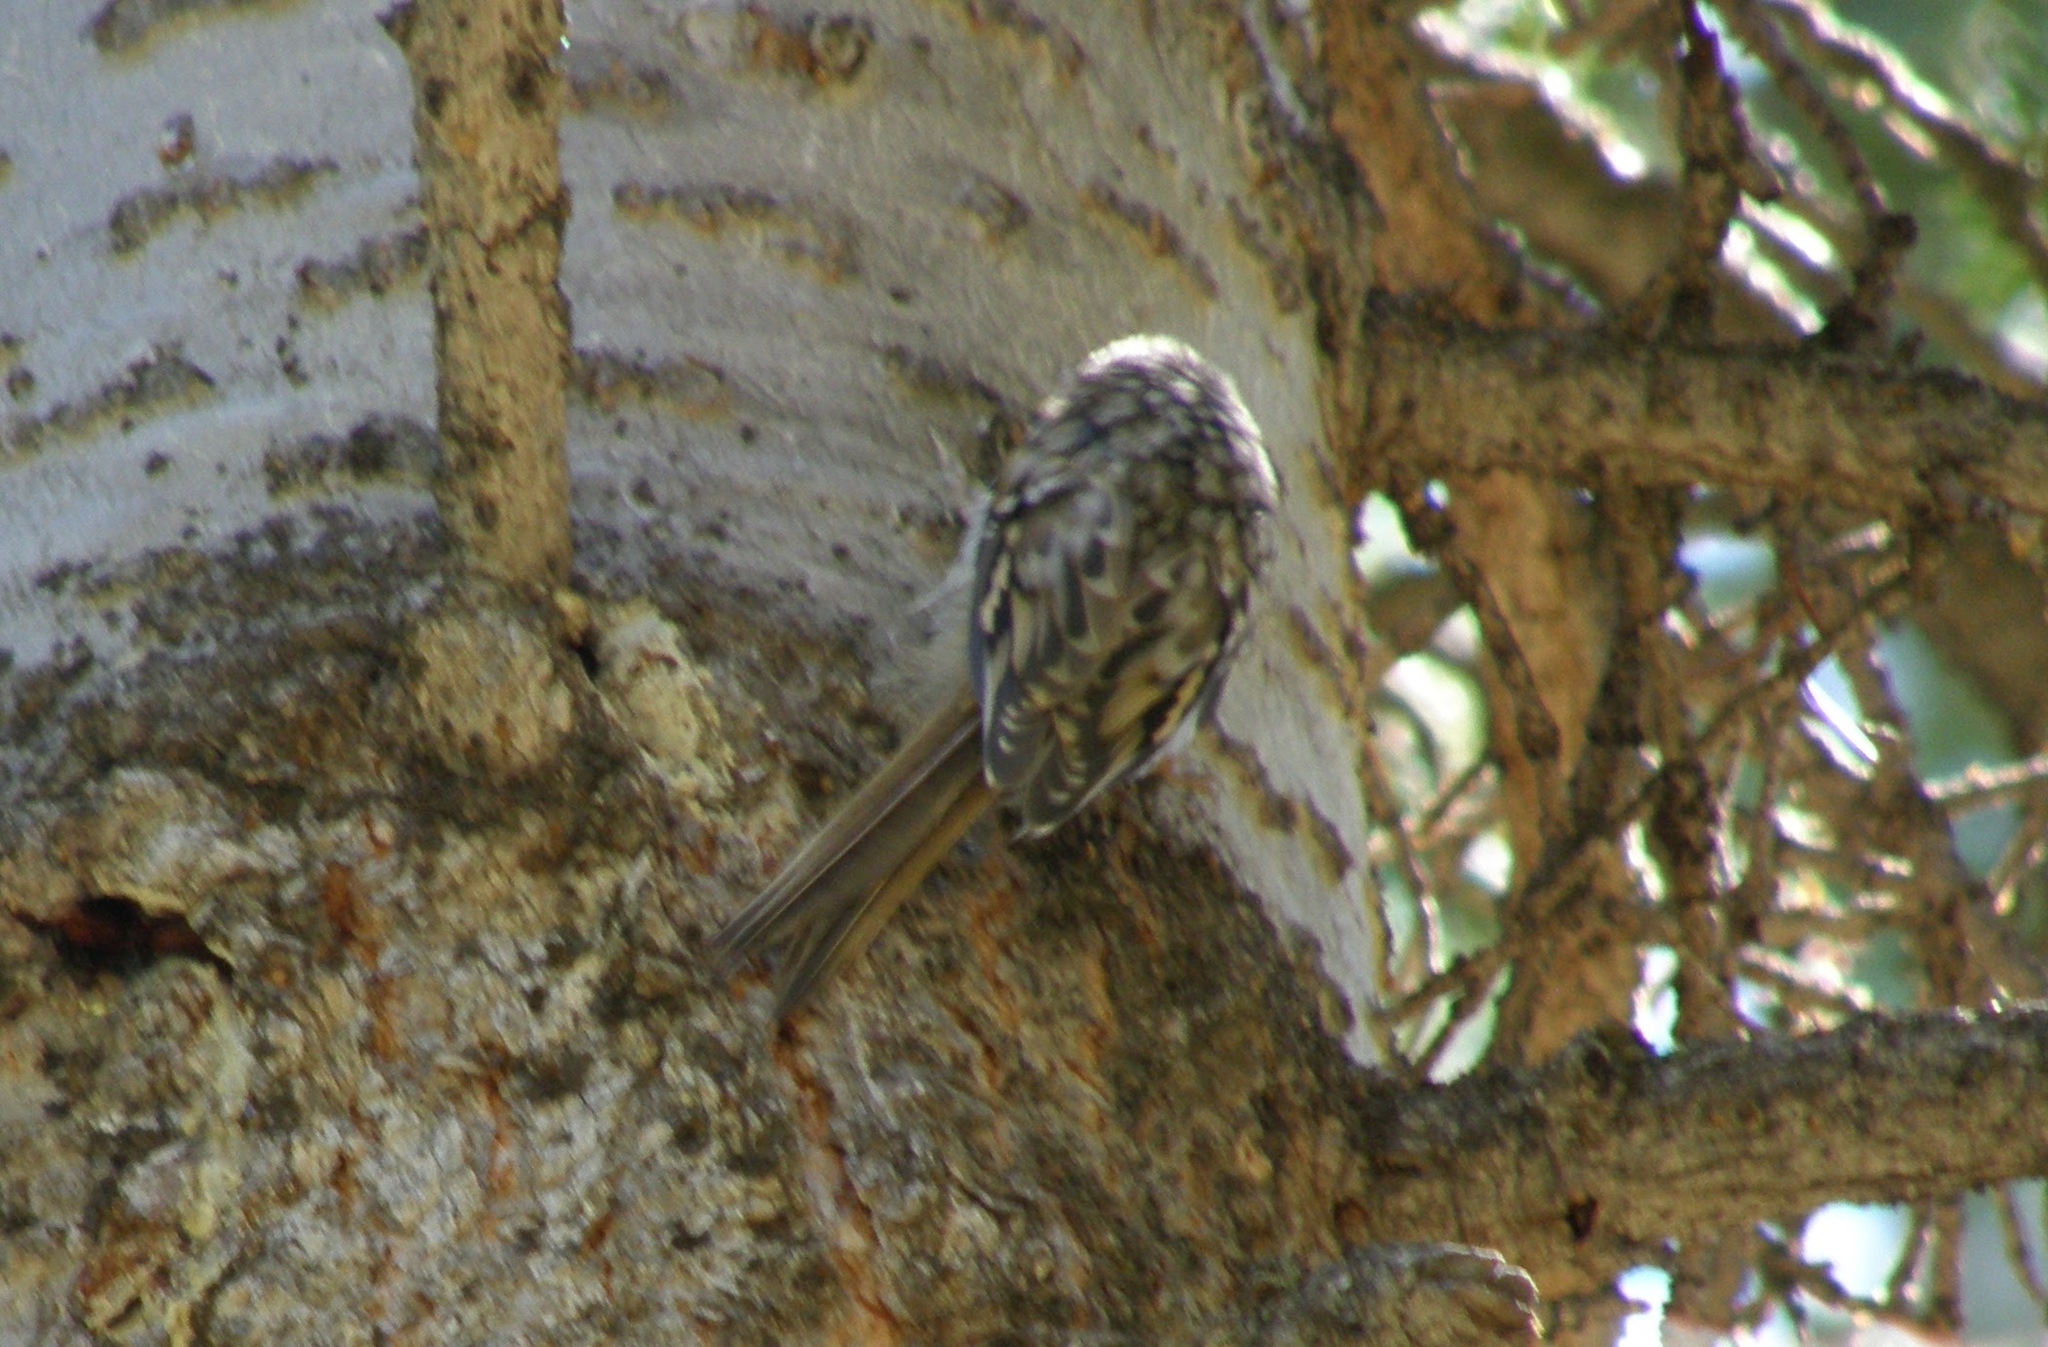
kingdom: Animalia
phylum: Chordata
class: Aves
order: Passeriformes
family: Certhiidae
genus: Certhia
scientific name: Certhia americana
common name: Brown creeper
